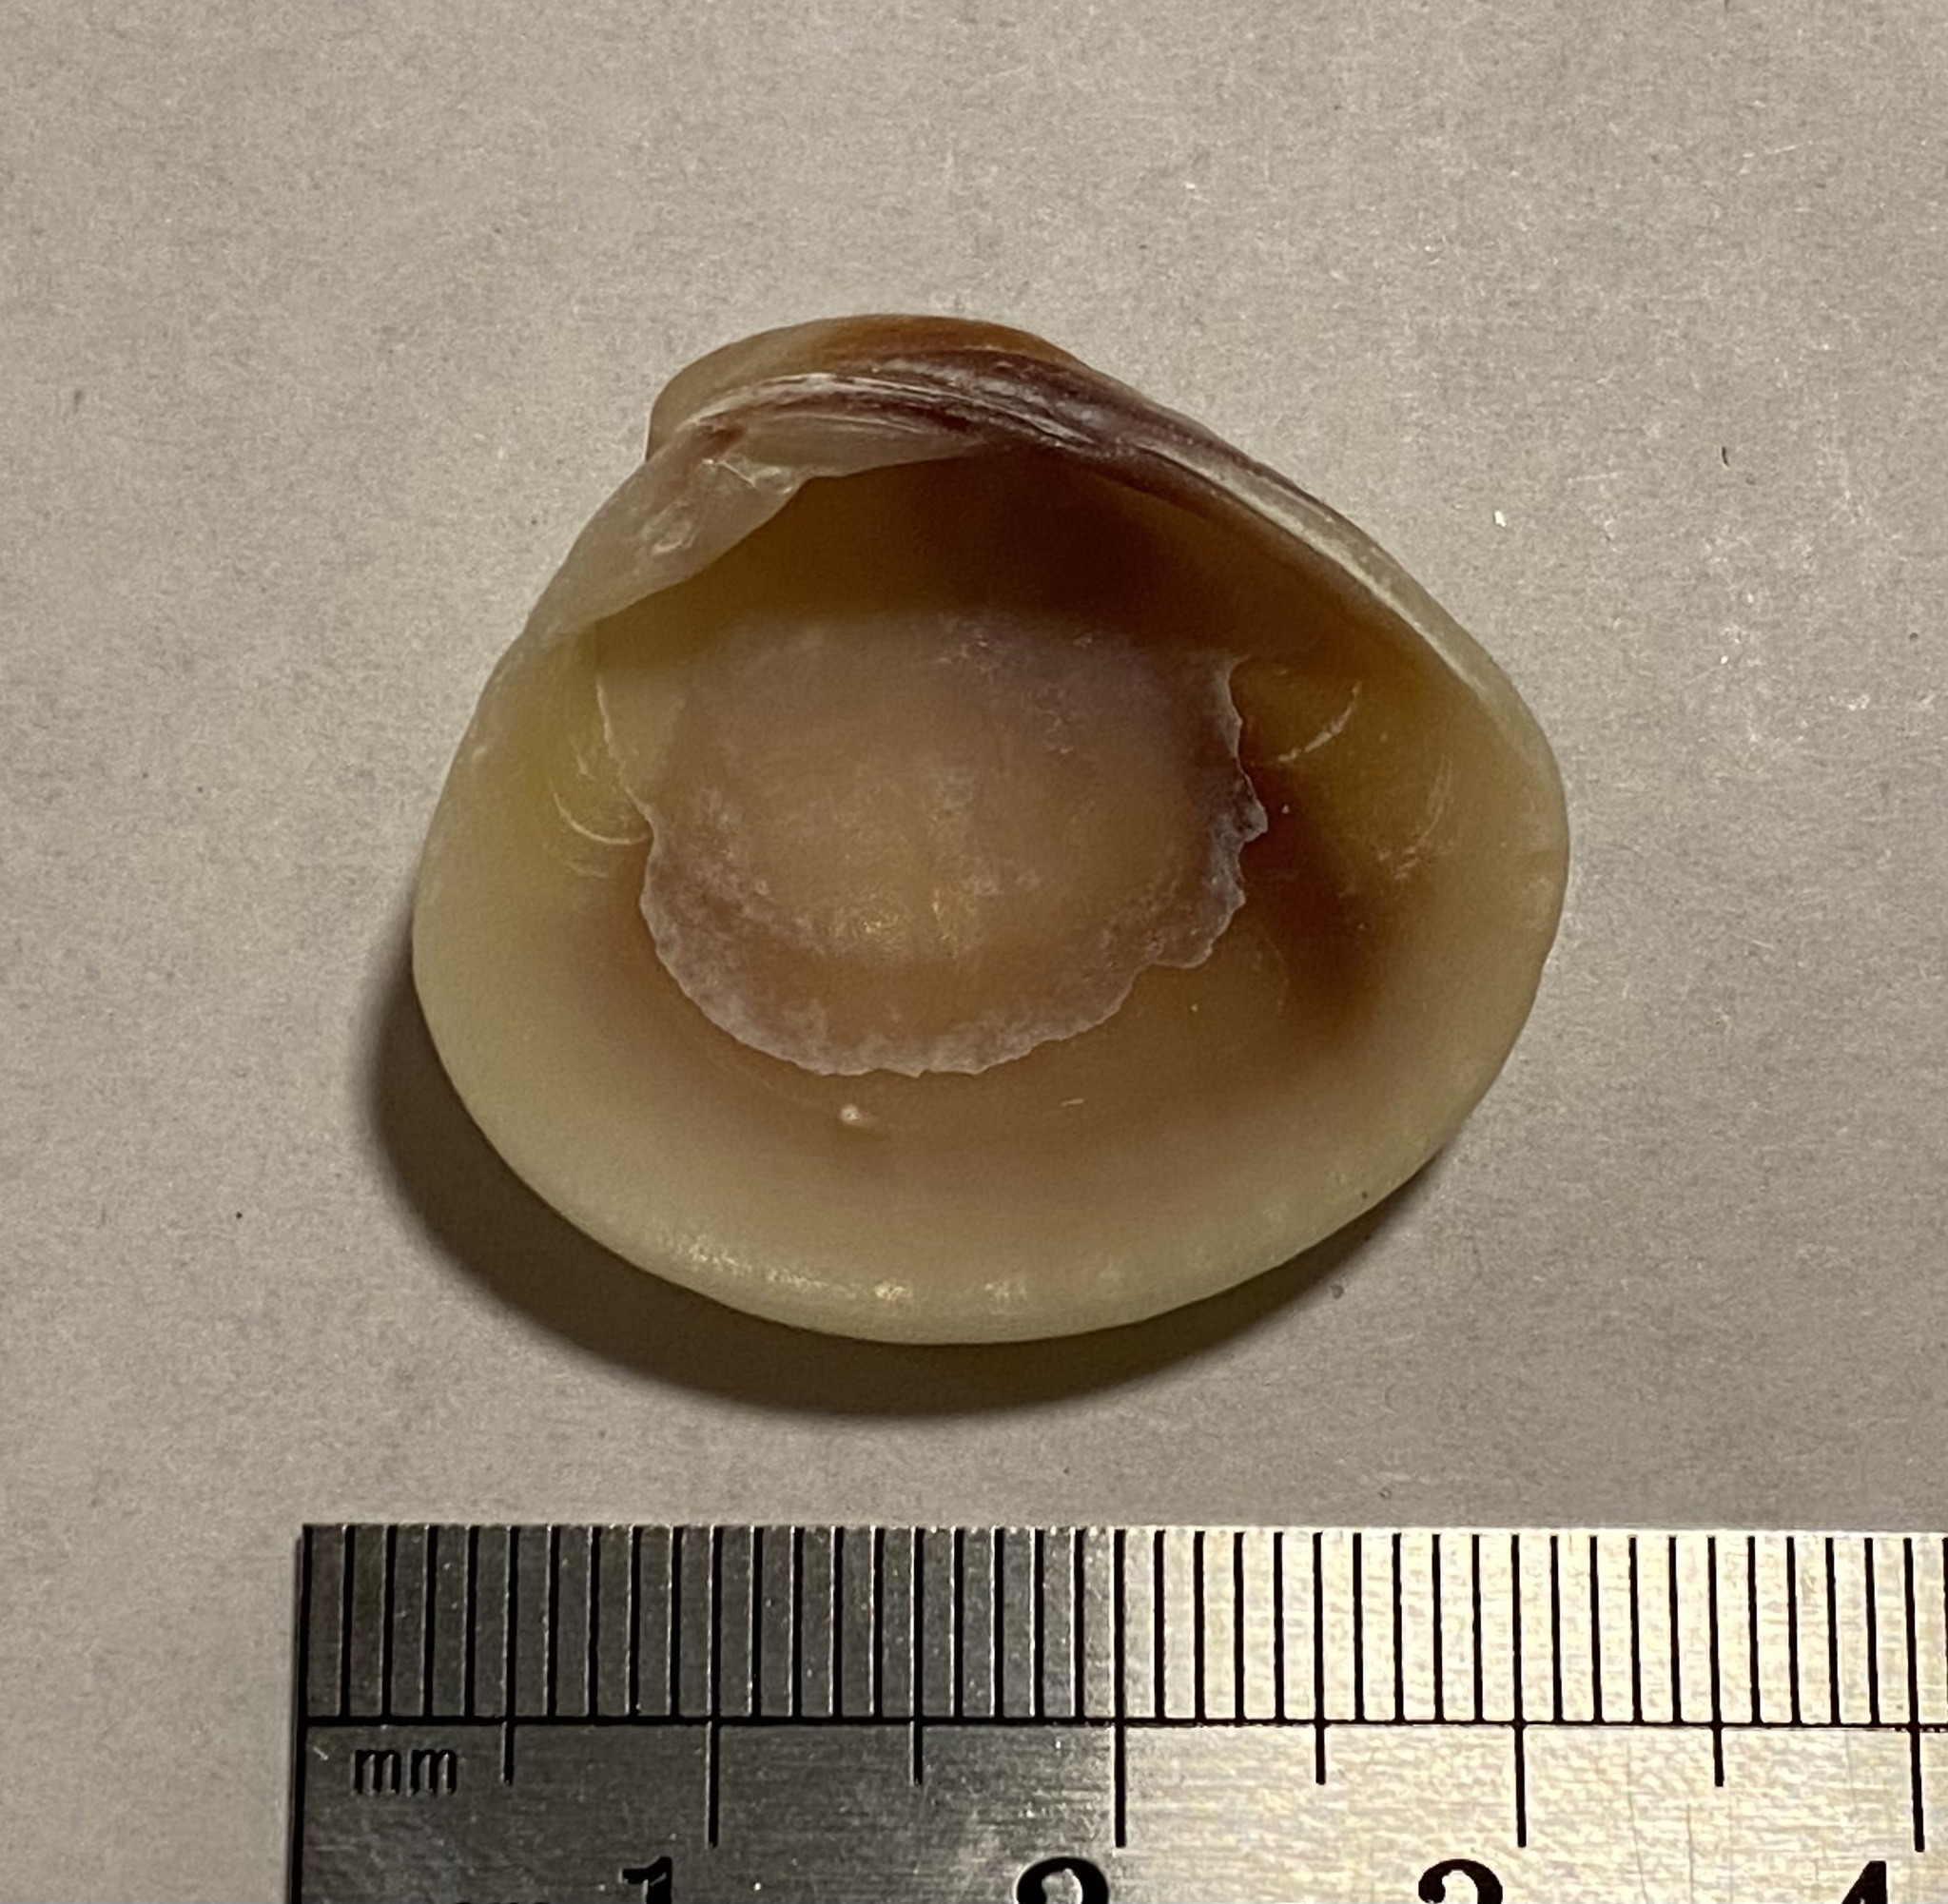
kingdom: Animalia
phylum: Mollusca
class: Bivalvia
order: Venerida
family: Veneridae
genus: Chione
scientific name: Chione elevata
